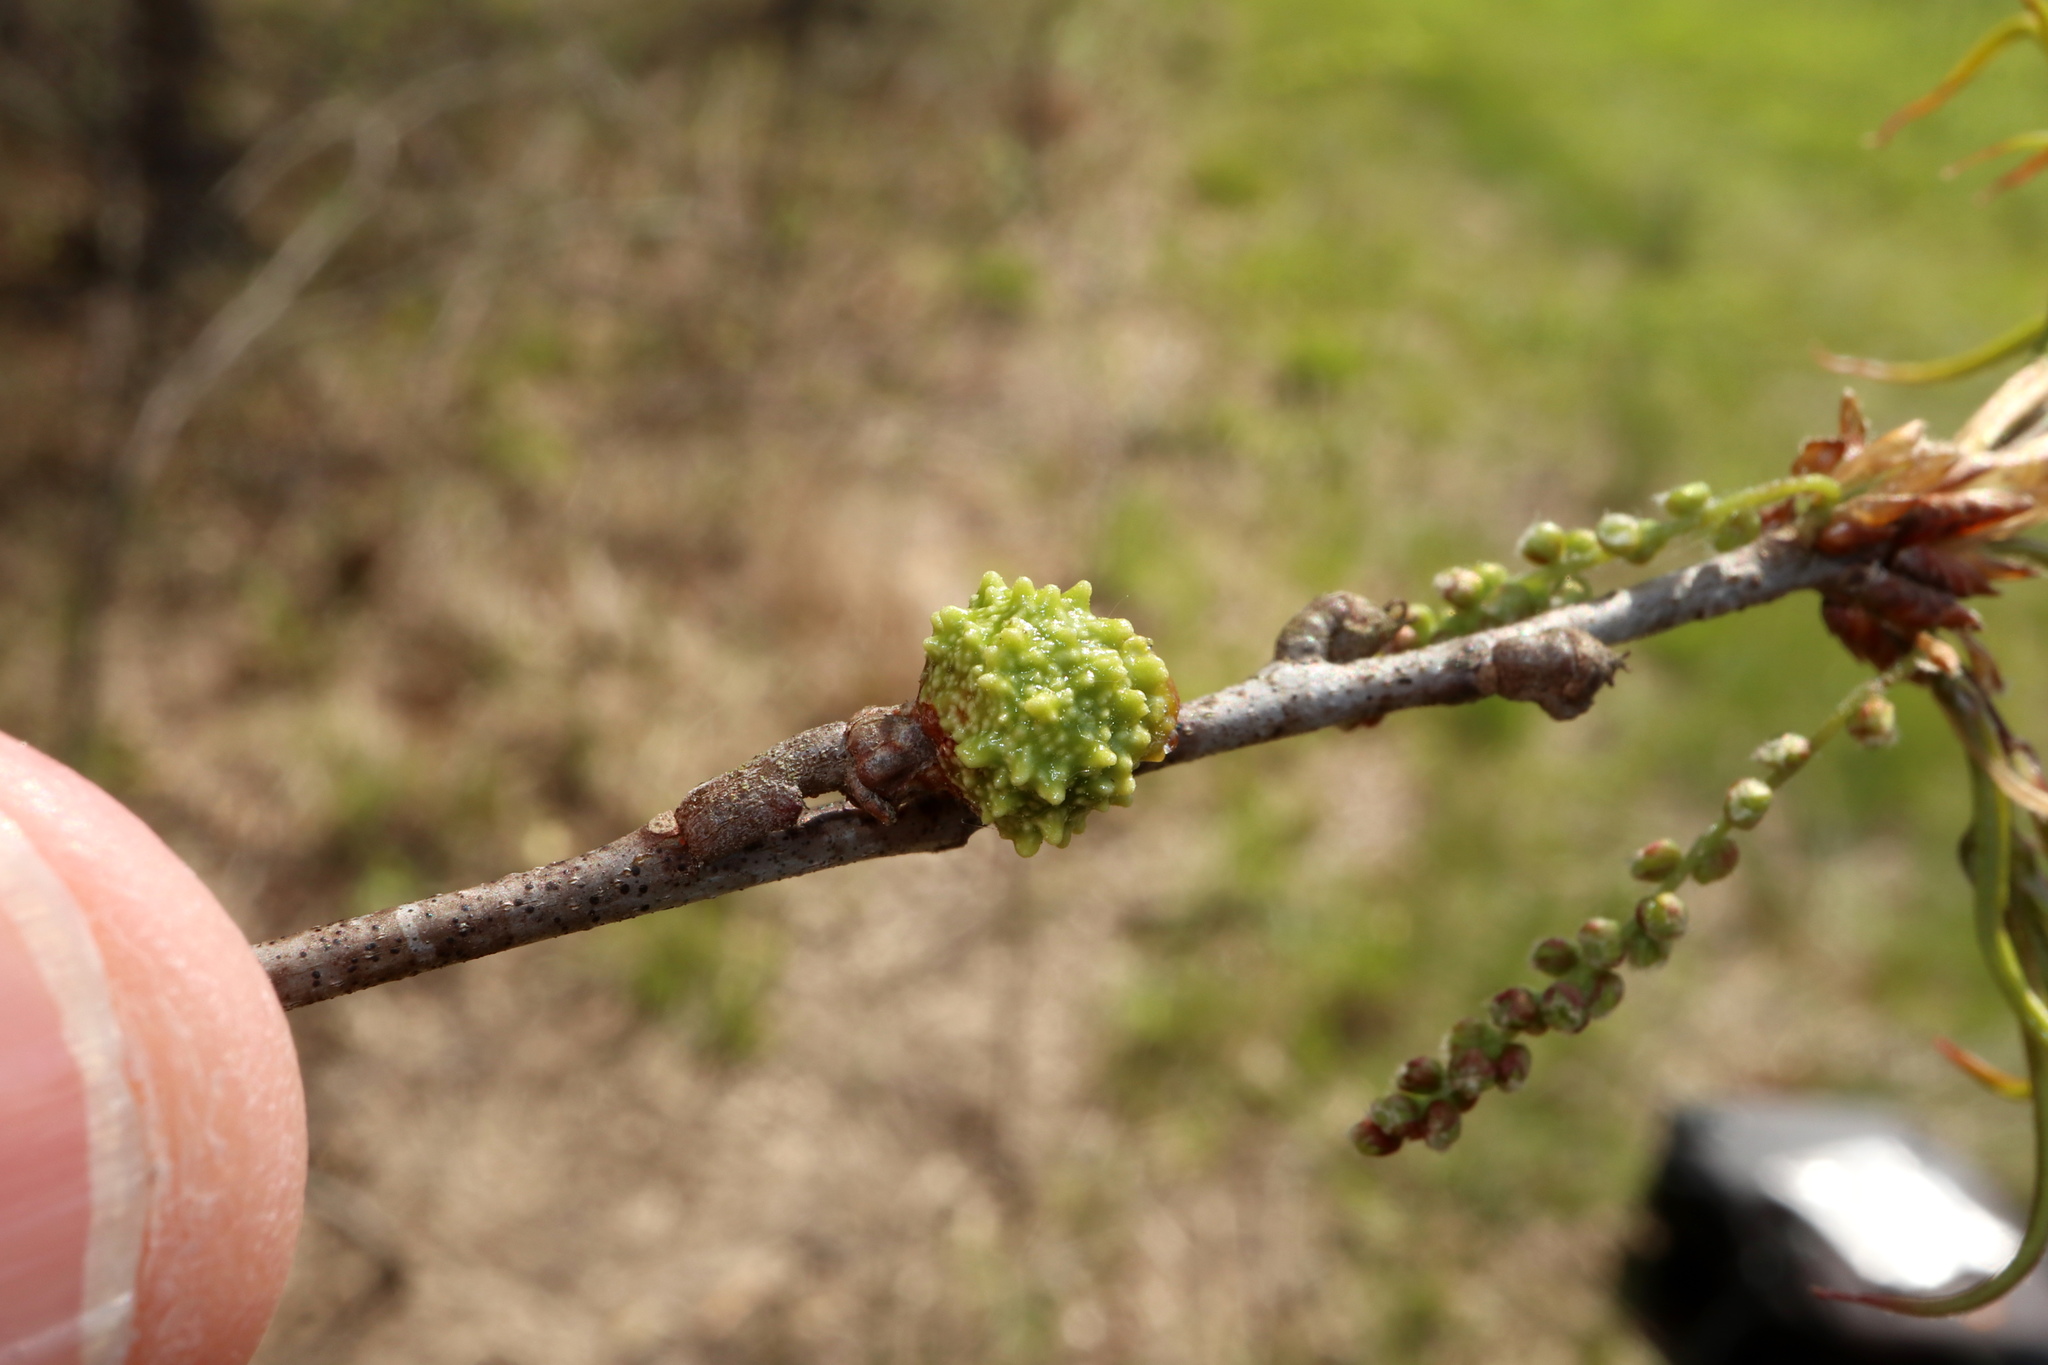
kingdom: Animalia
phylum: Arthropoda
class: Insecta
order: Hymenoptera
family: Cynipidae
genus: Callirhytis
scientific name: Callirhytis
